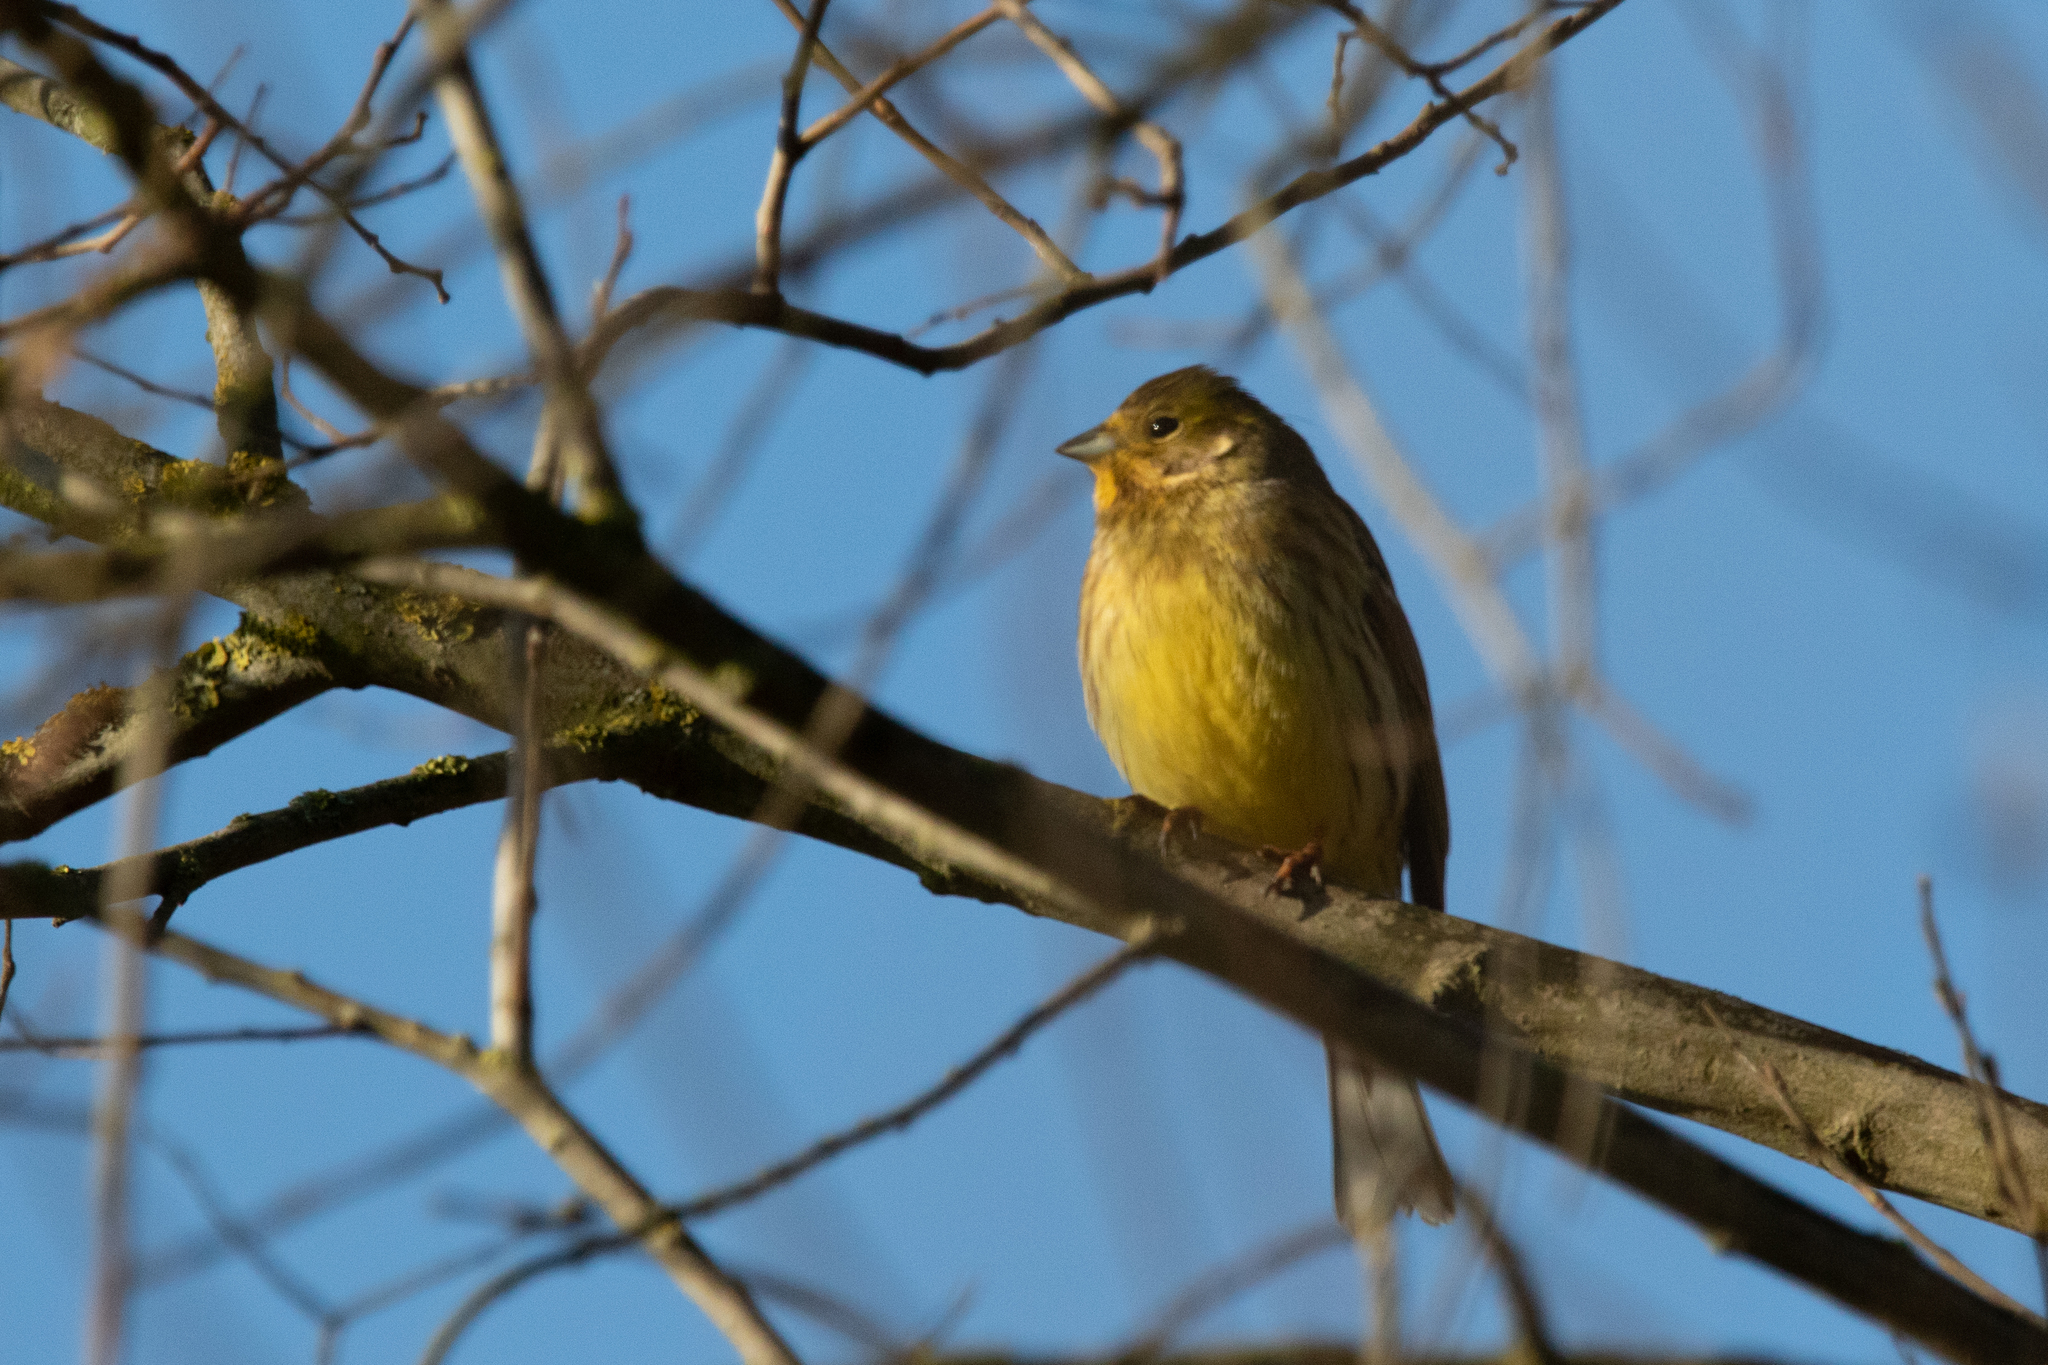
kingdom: Animalia
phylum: Chordata
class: Aves
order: Passeriformes
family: Emberizidae
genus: Emberiza
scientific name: Emberiza citrinella
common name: Yellowhammer
